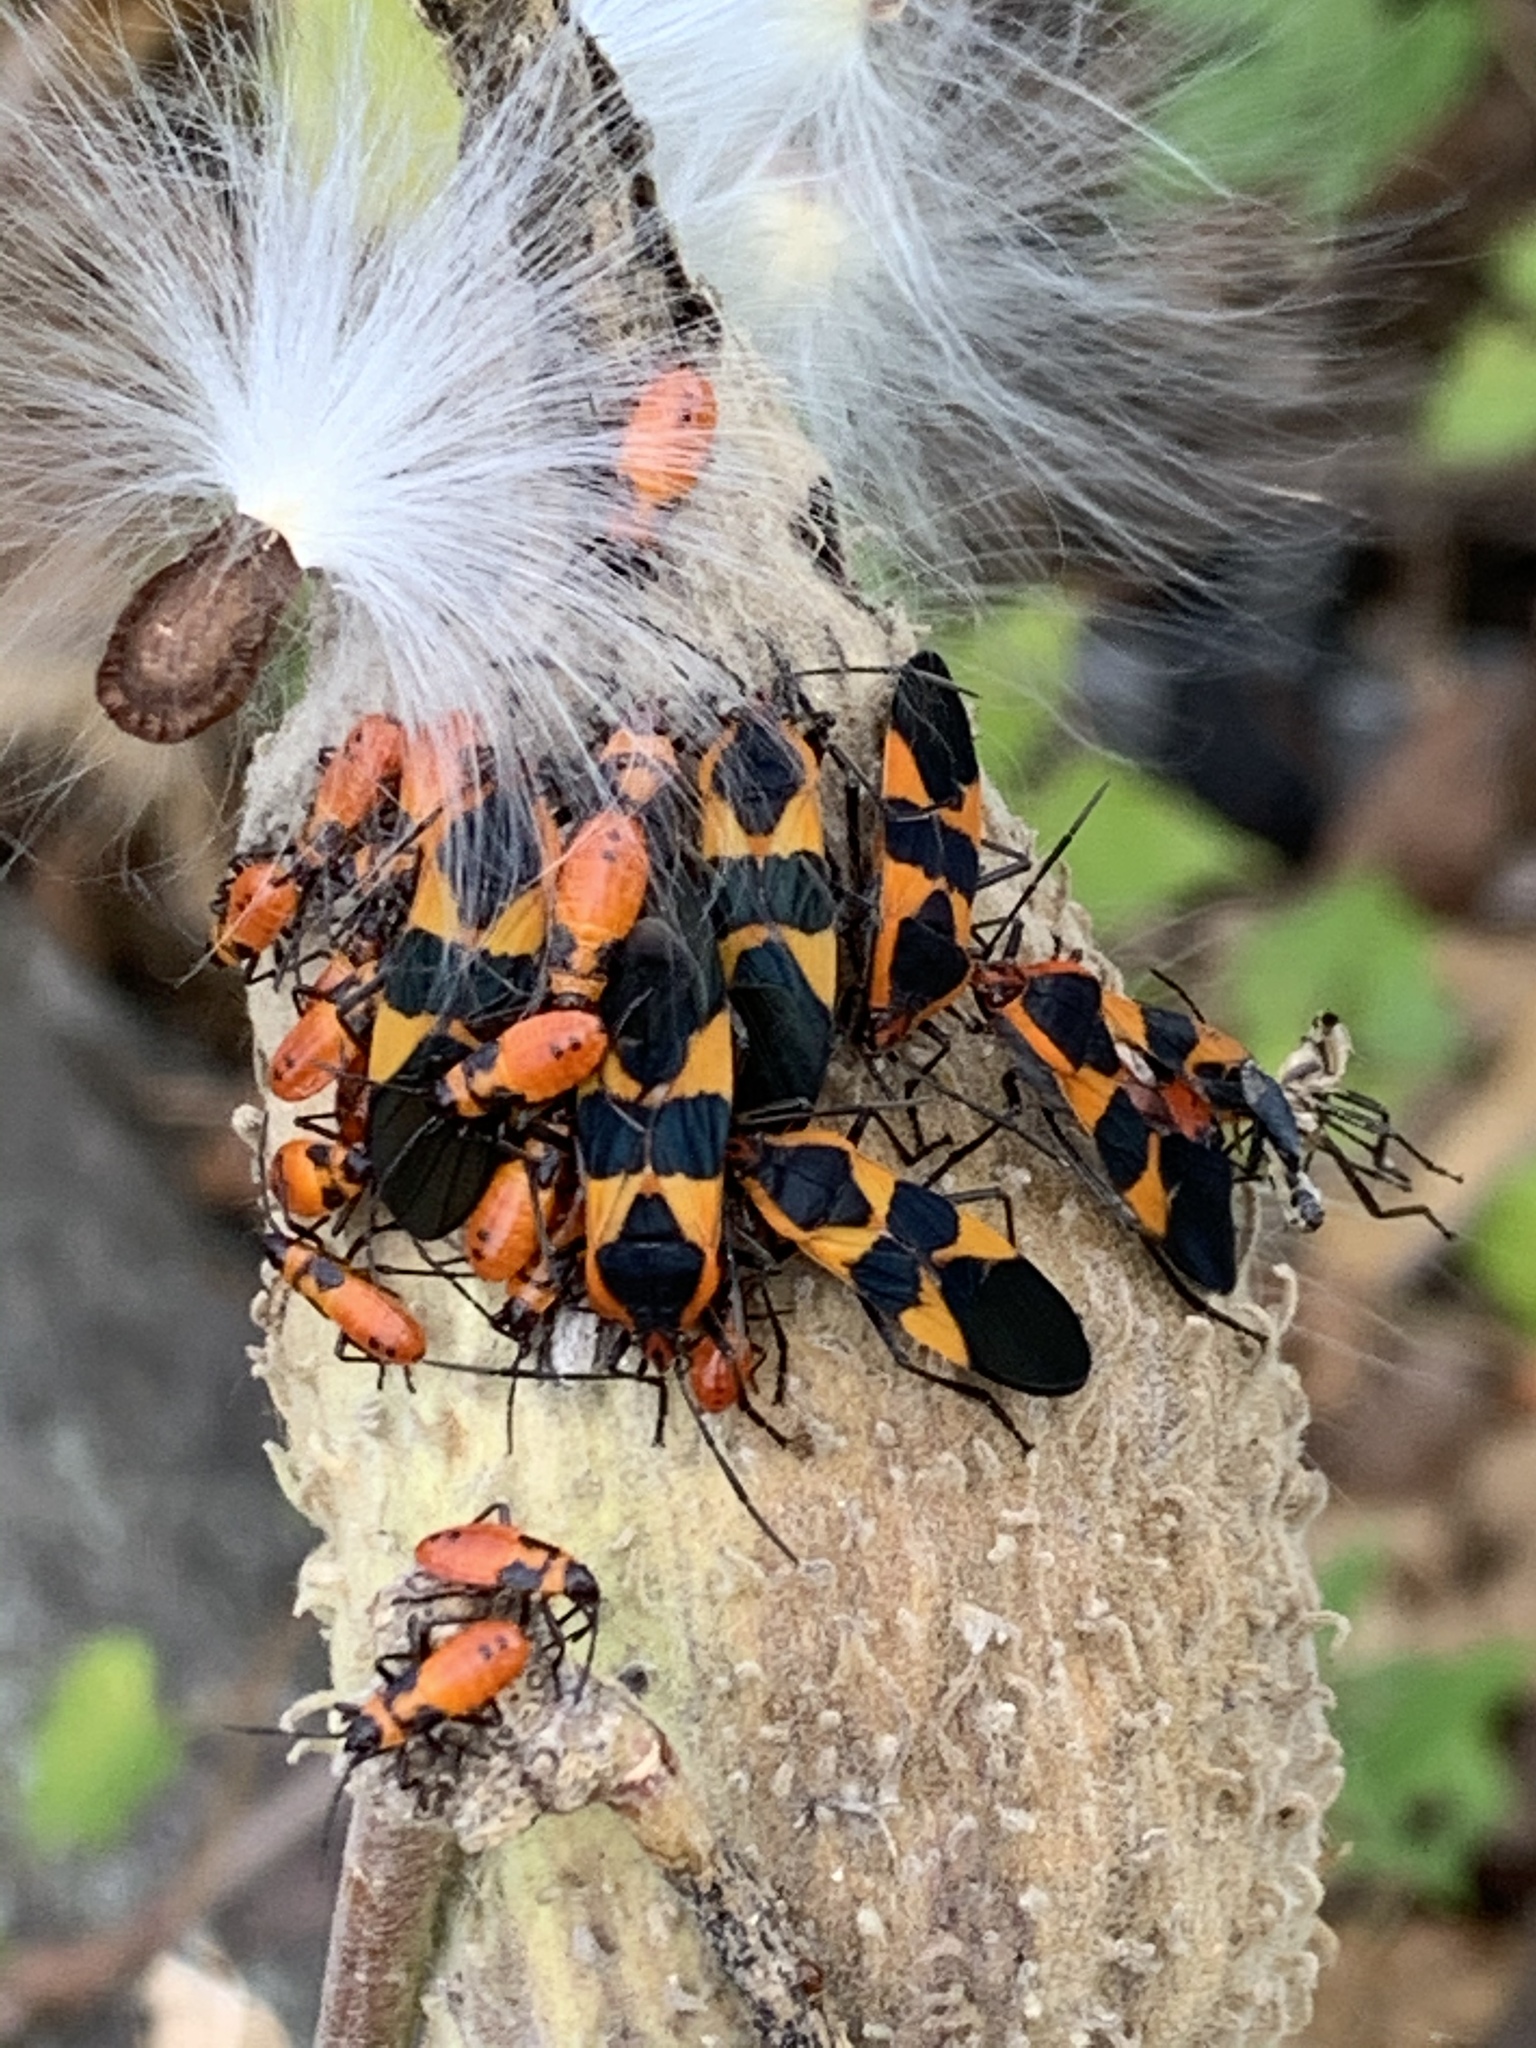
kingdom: Animalia
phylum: Arthropoda
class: Insecta
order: Hemiptera
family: Lygaeidae
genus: Oncopeltus
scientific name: Oncopeltus fasciatus
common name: Large milkweed bug
